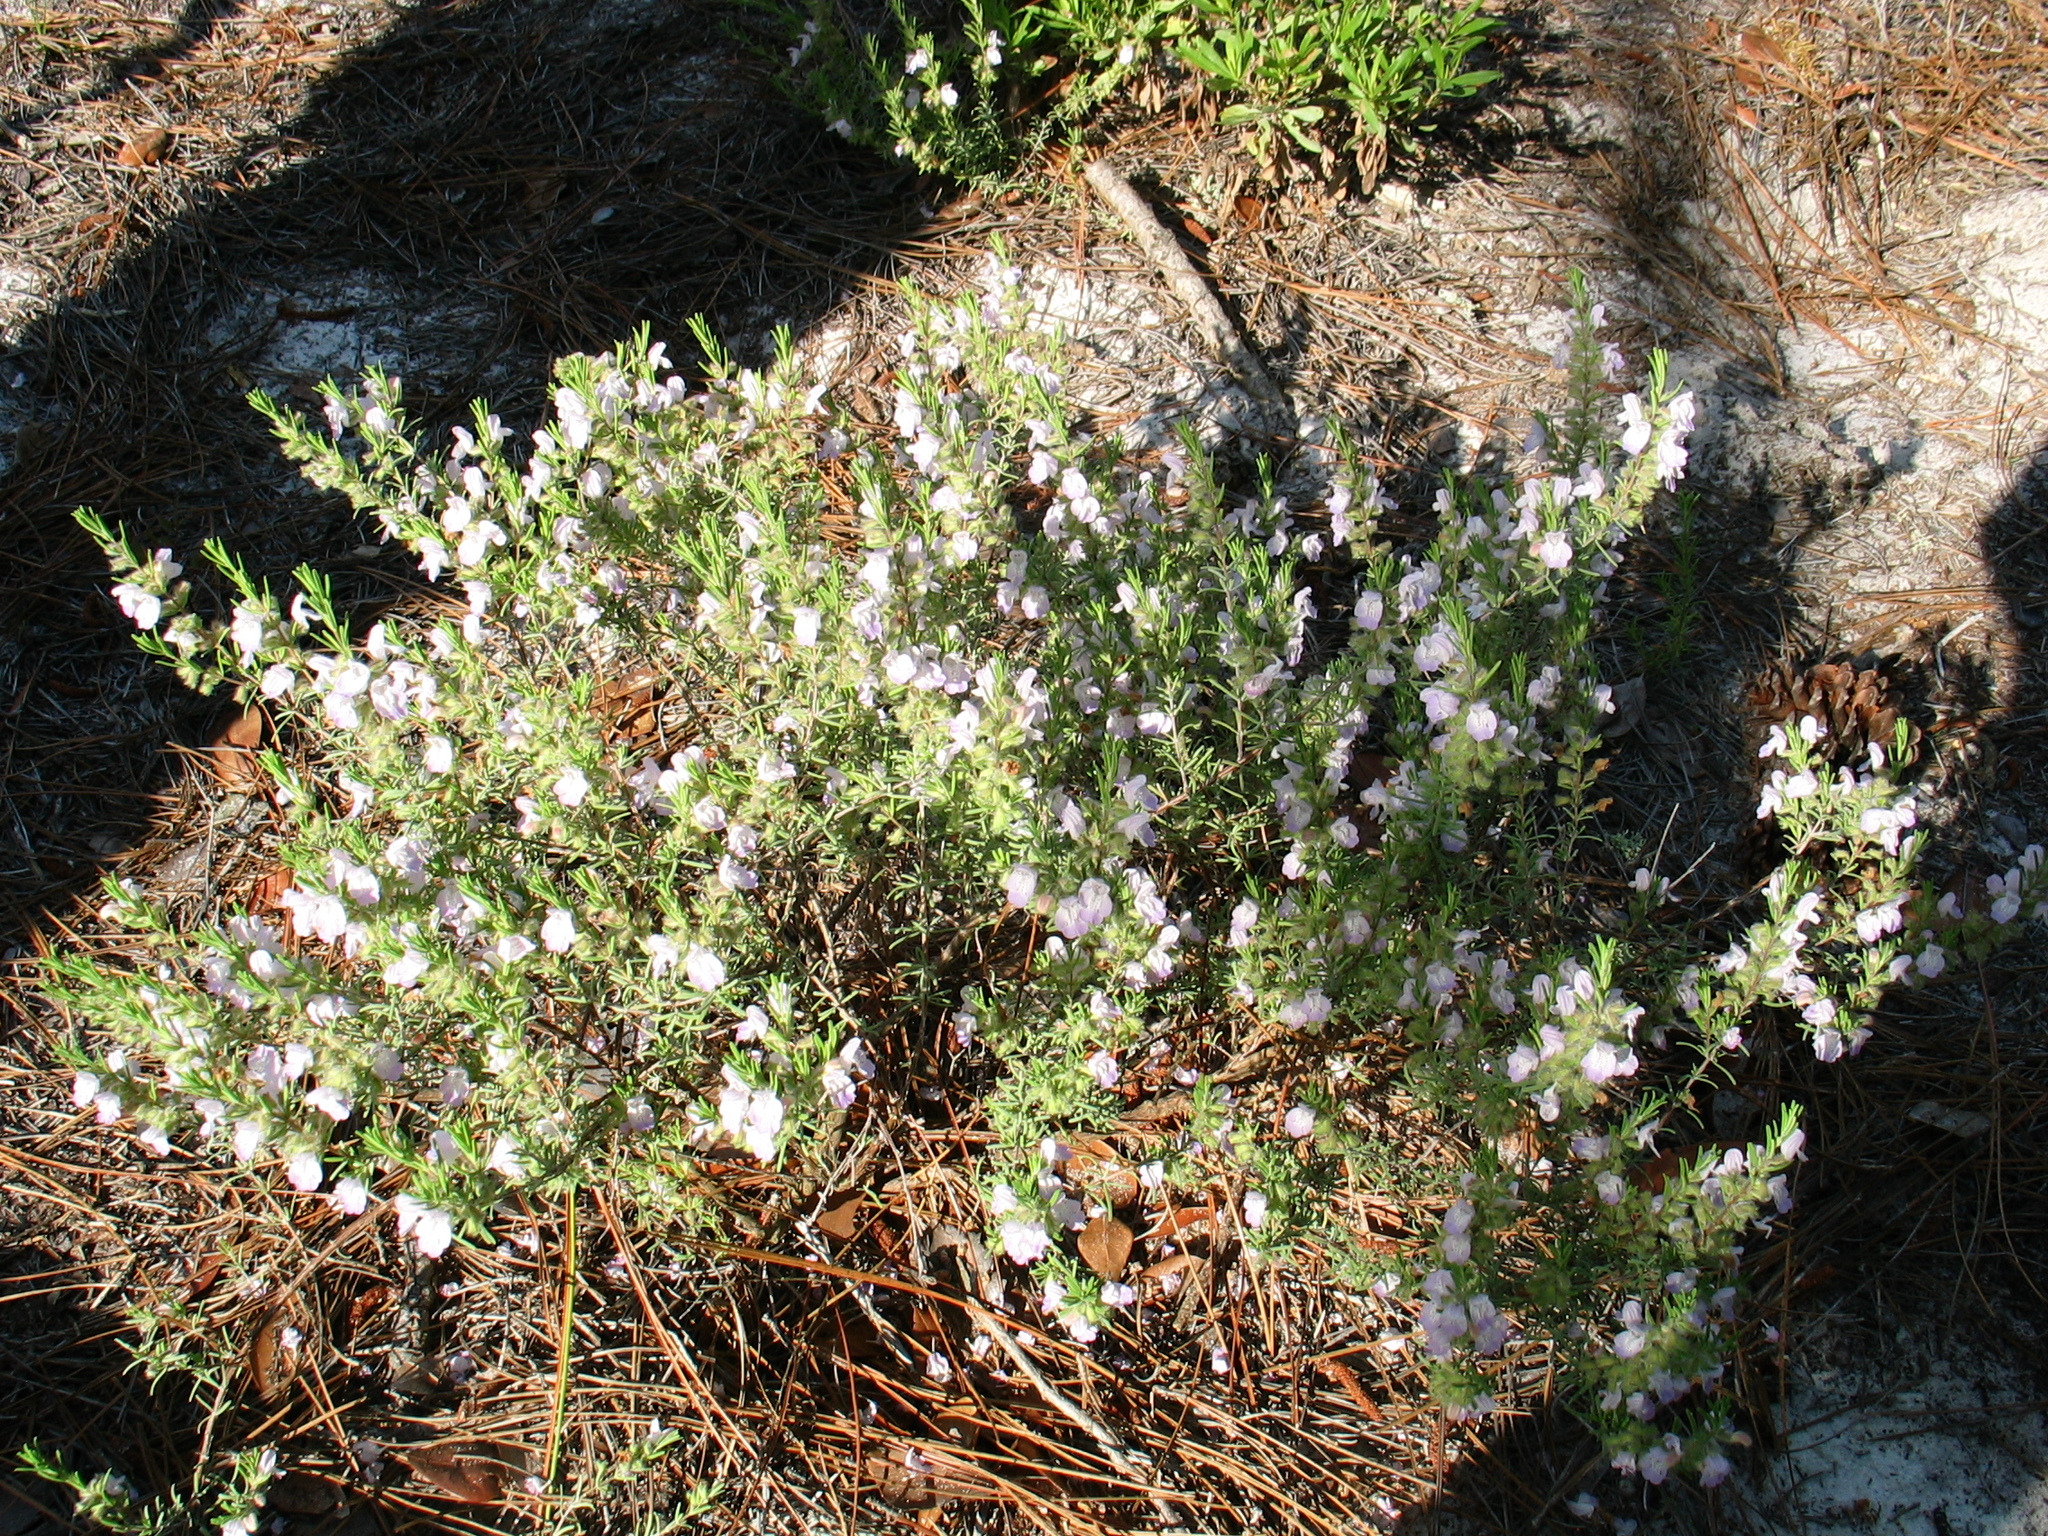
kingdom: Plantae
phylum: Tracheophyta
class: Magnoliopsida
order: Lamiales
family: Lamiaceae
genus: Conradina
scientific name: Conradina canescens
